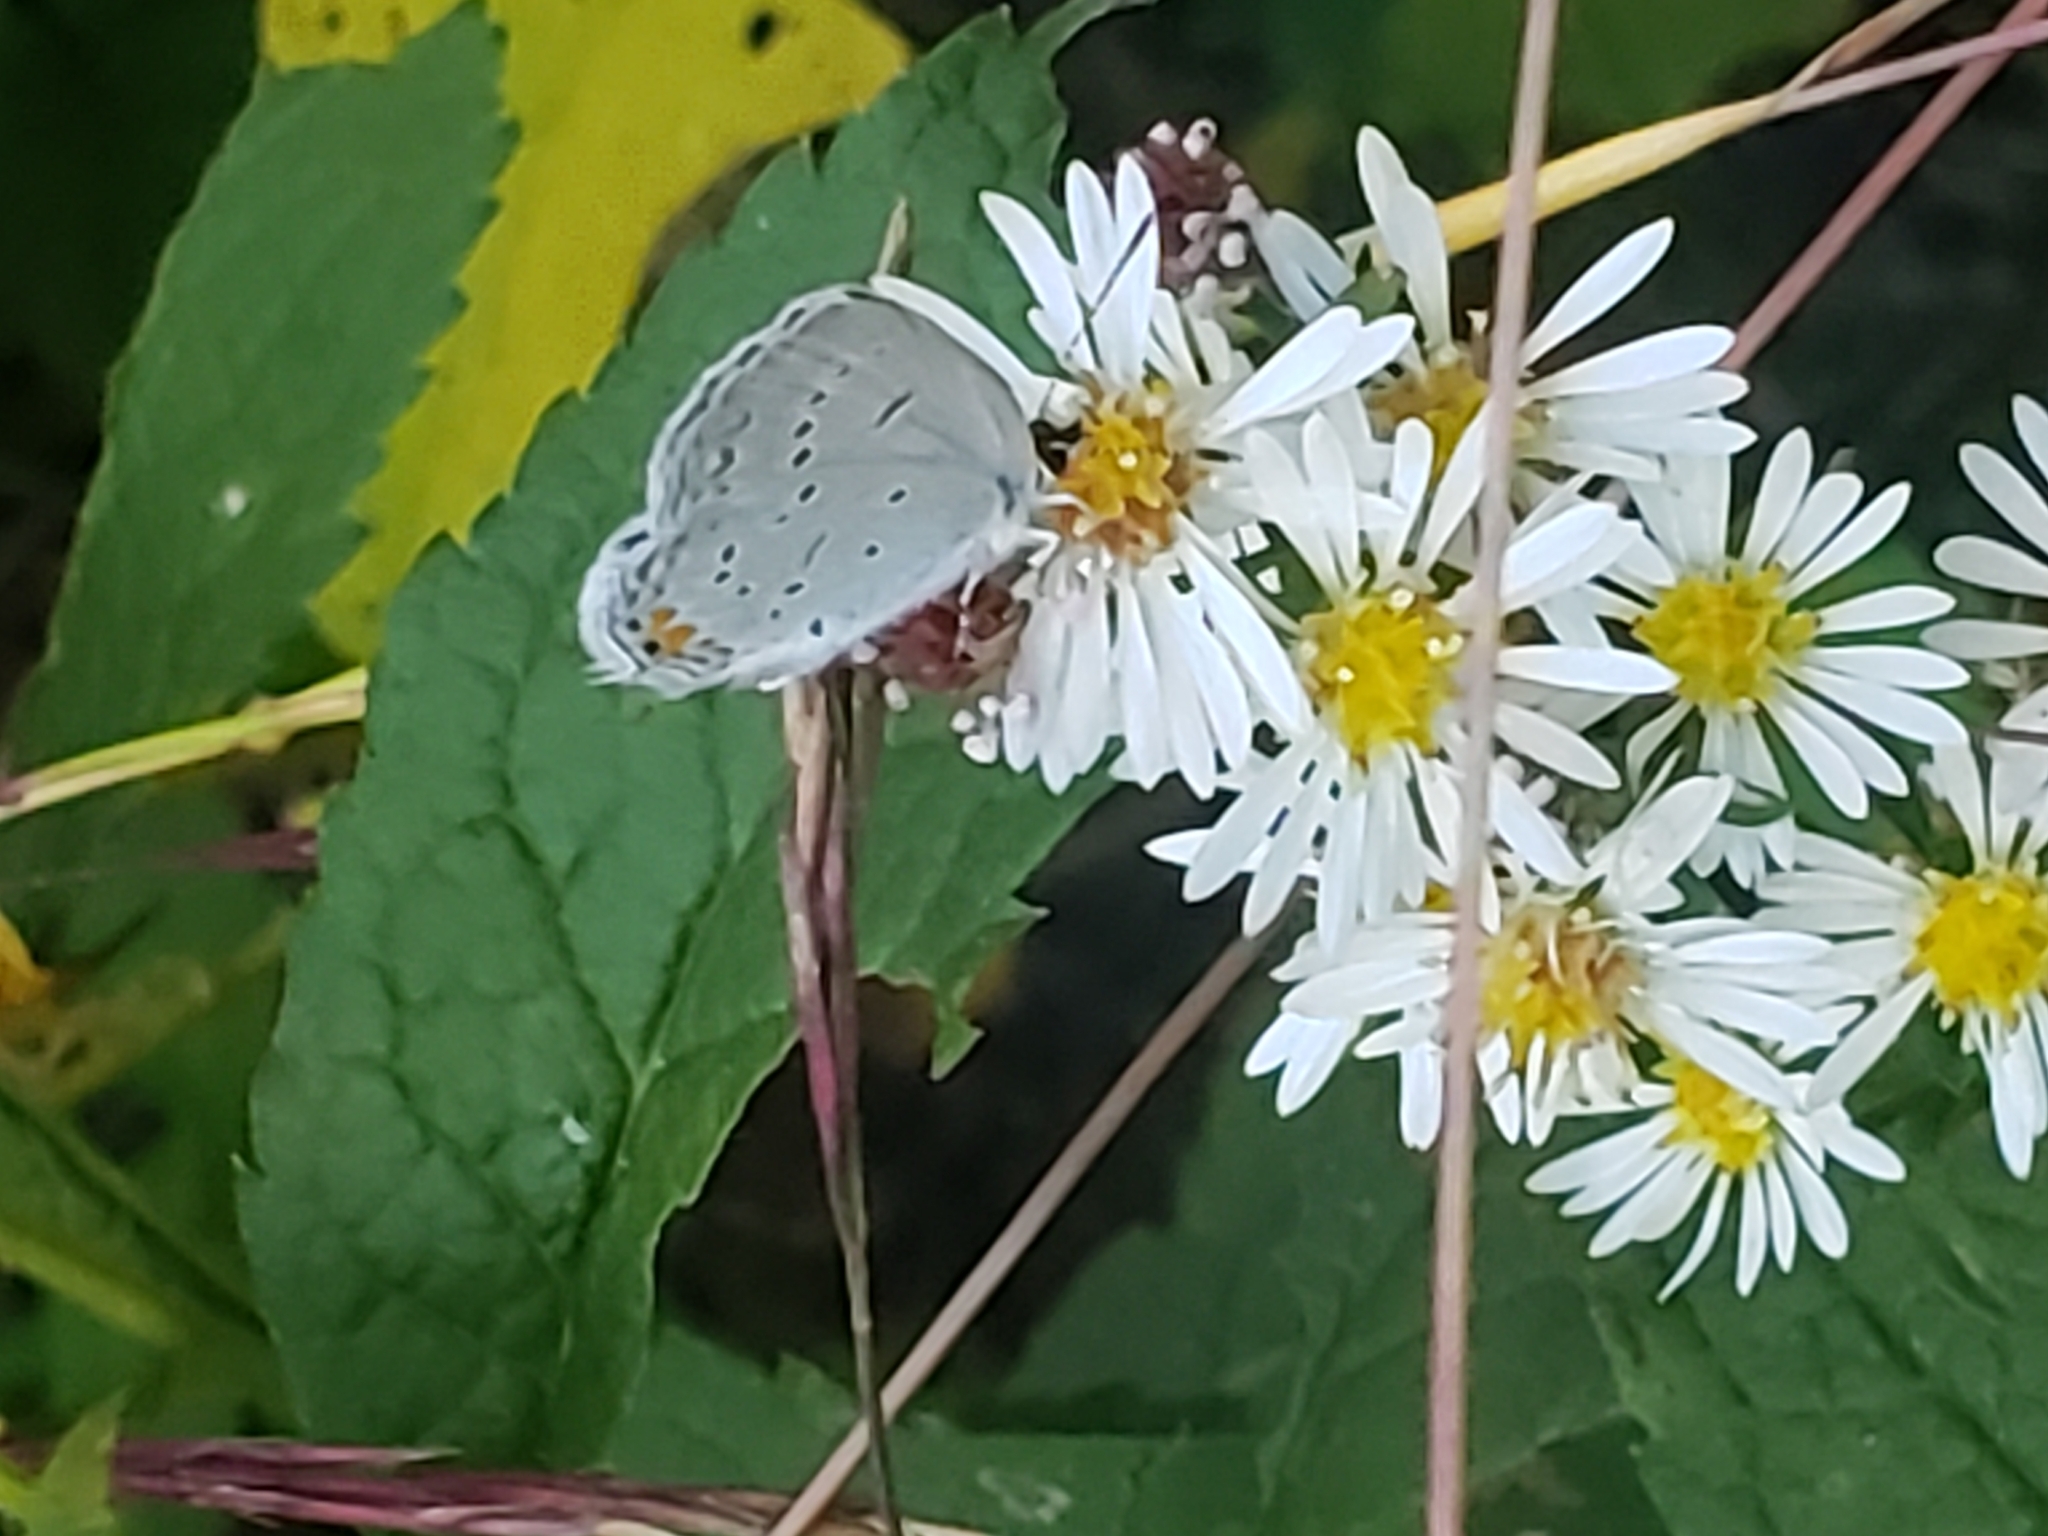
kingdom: Animalia
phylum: Arthropoda
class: Insecta
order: Lepidoptera
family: Lycaenidae
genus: Elkalyce
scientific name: Elkalyce comyntas
